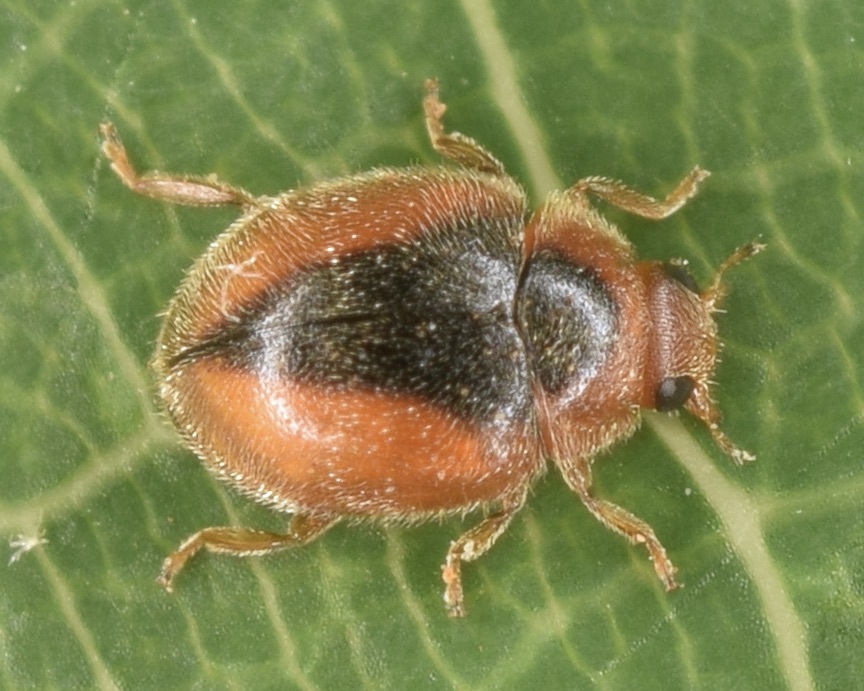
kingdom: Animalia
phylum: Arthropoda
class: Insecta
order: Coleoptera
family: Coccinellidae
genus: Scymnus
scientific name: Scymnus loewii
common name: Dusky lady beetle
